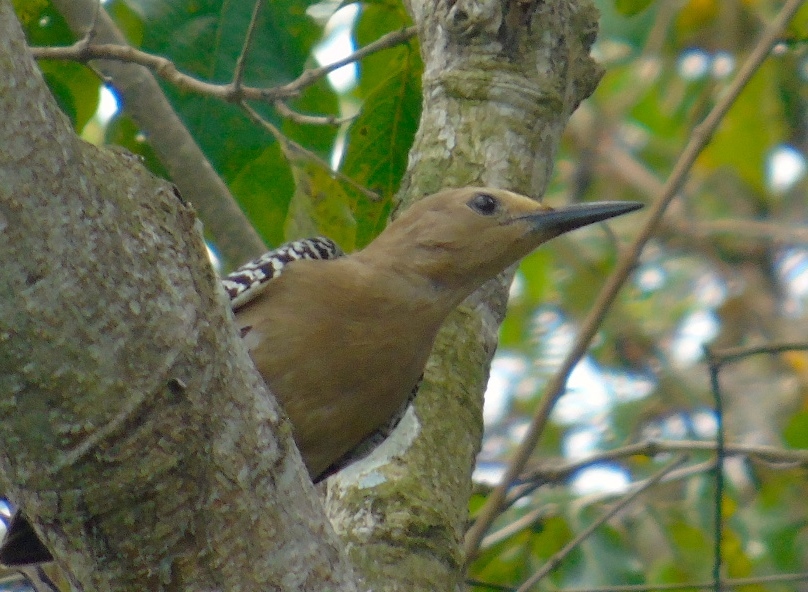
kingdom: Animalia
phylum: Chordata
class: Aves
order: Piciformes
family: Picidae
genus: Melanerpes
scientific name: Melanerpes uropygialis
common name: Gila woodpecker
